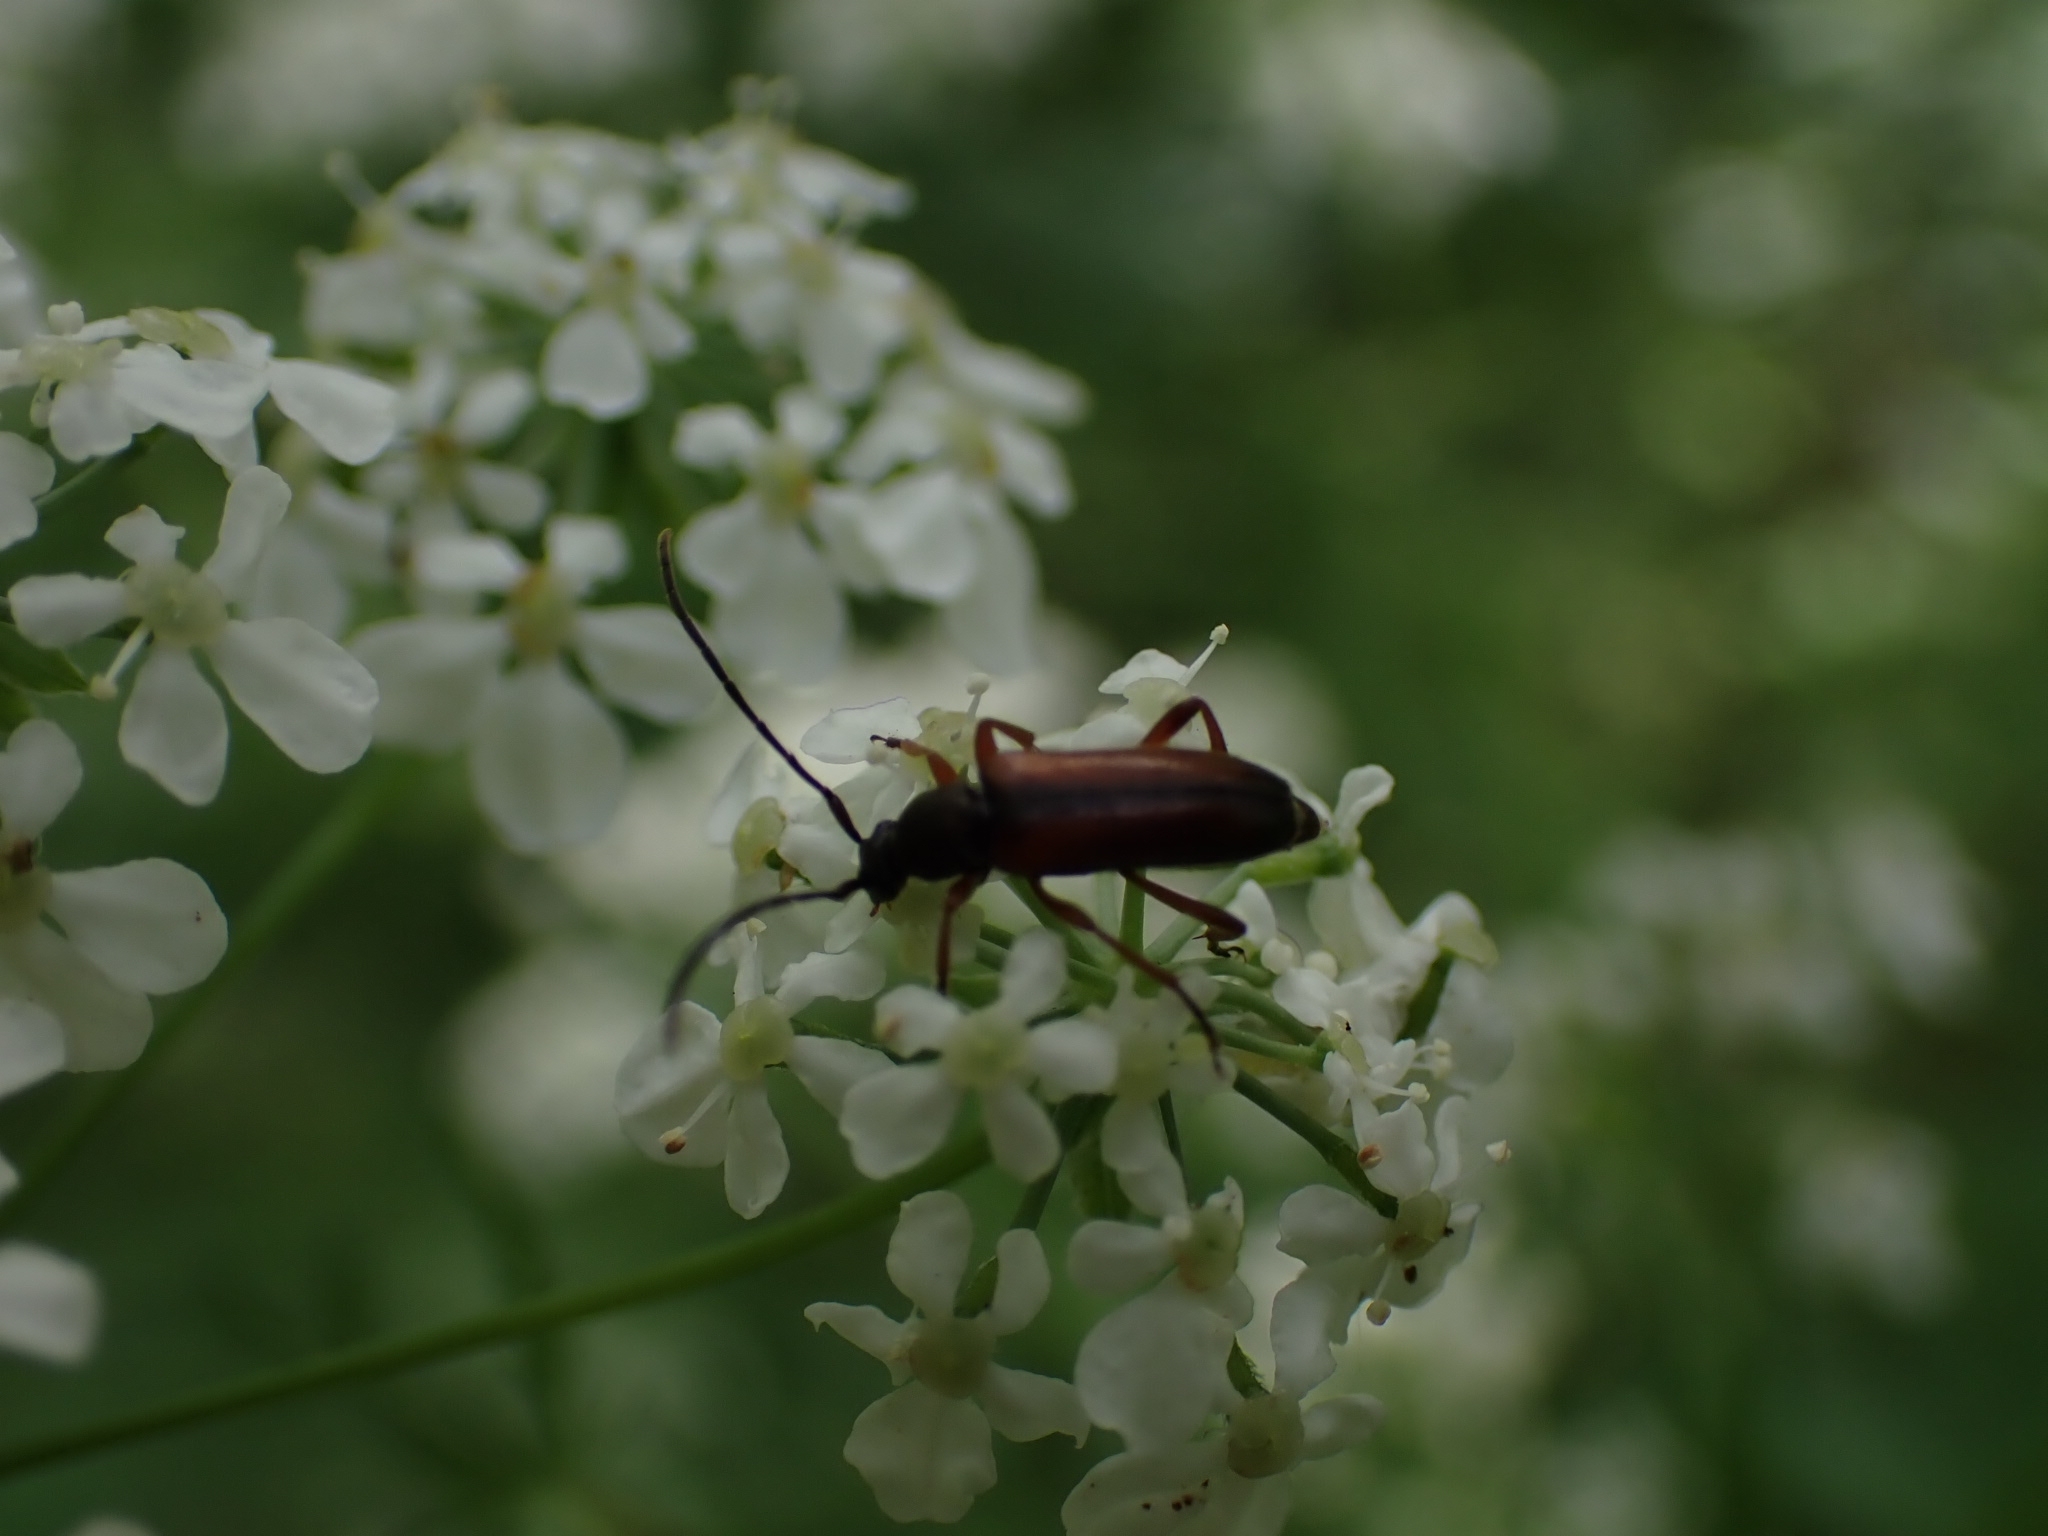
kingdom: Animalia
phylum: Arthropoda
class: Insecta
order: Coleoptera
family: Cerambycidae
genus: Alosterna
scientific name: Alosterna tabacicolor
